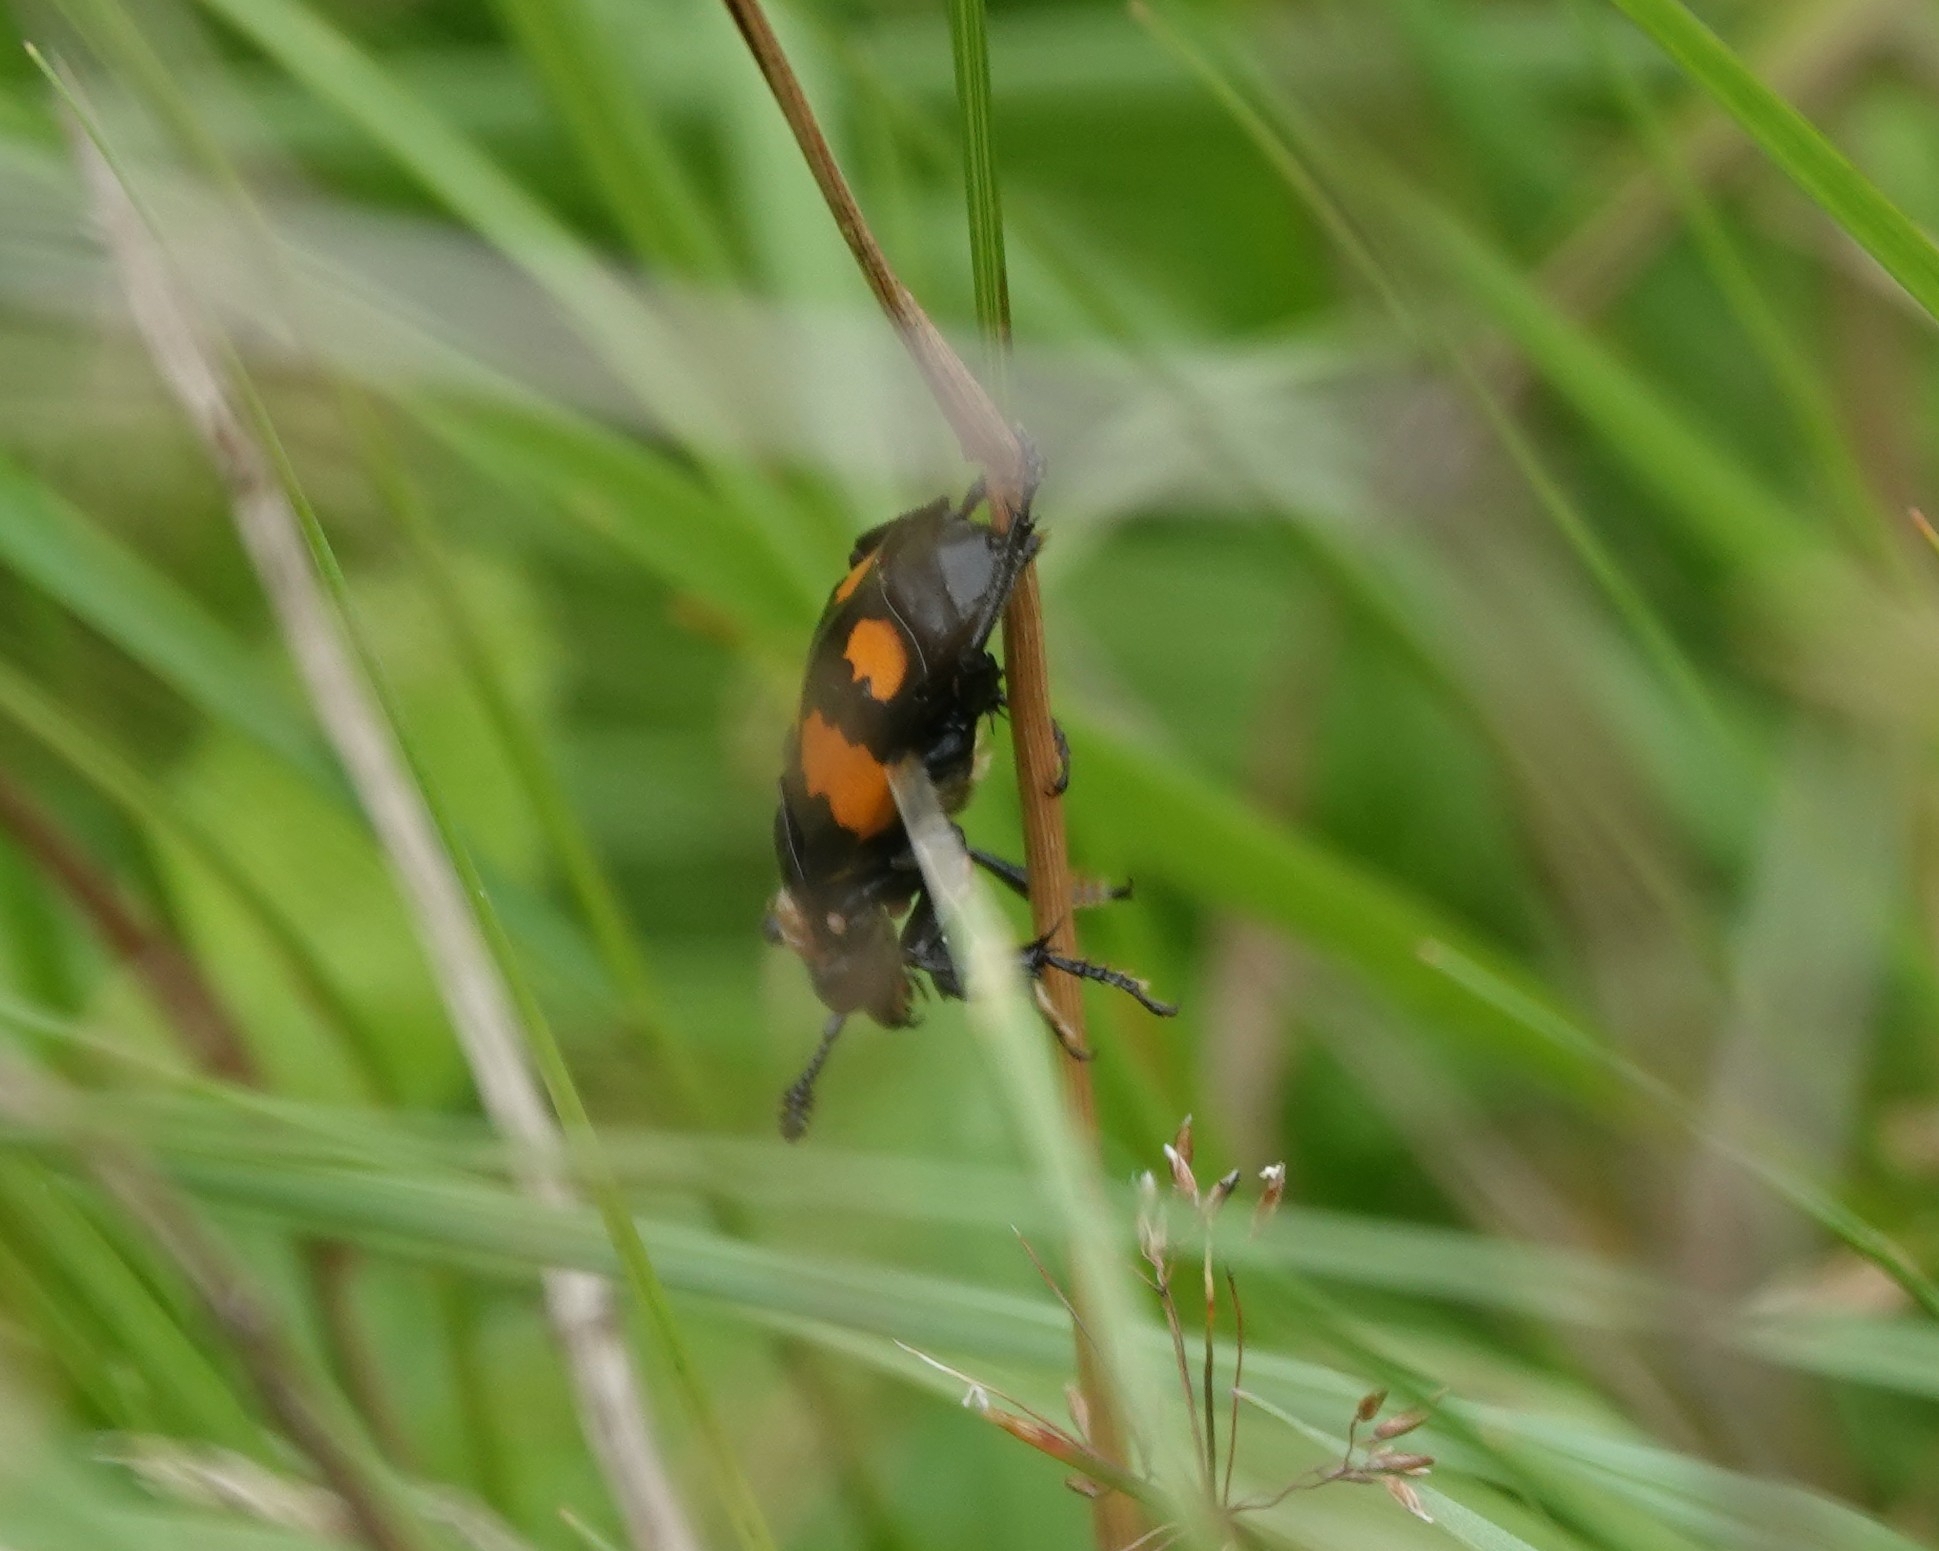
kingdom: Animalia
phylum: Arthropoda
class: Insecta
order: Coleoptera
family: Staphylinidae
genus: Nicrophorus
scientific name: Nicrophorus vespilloides
